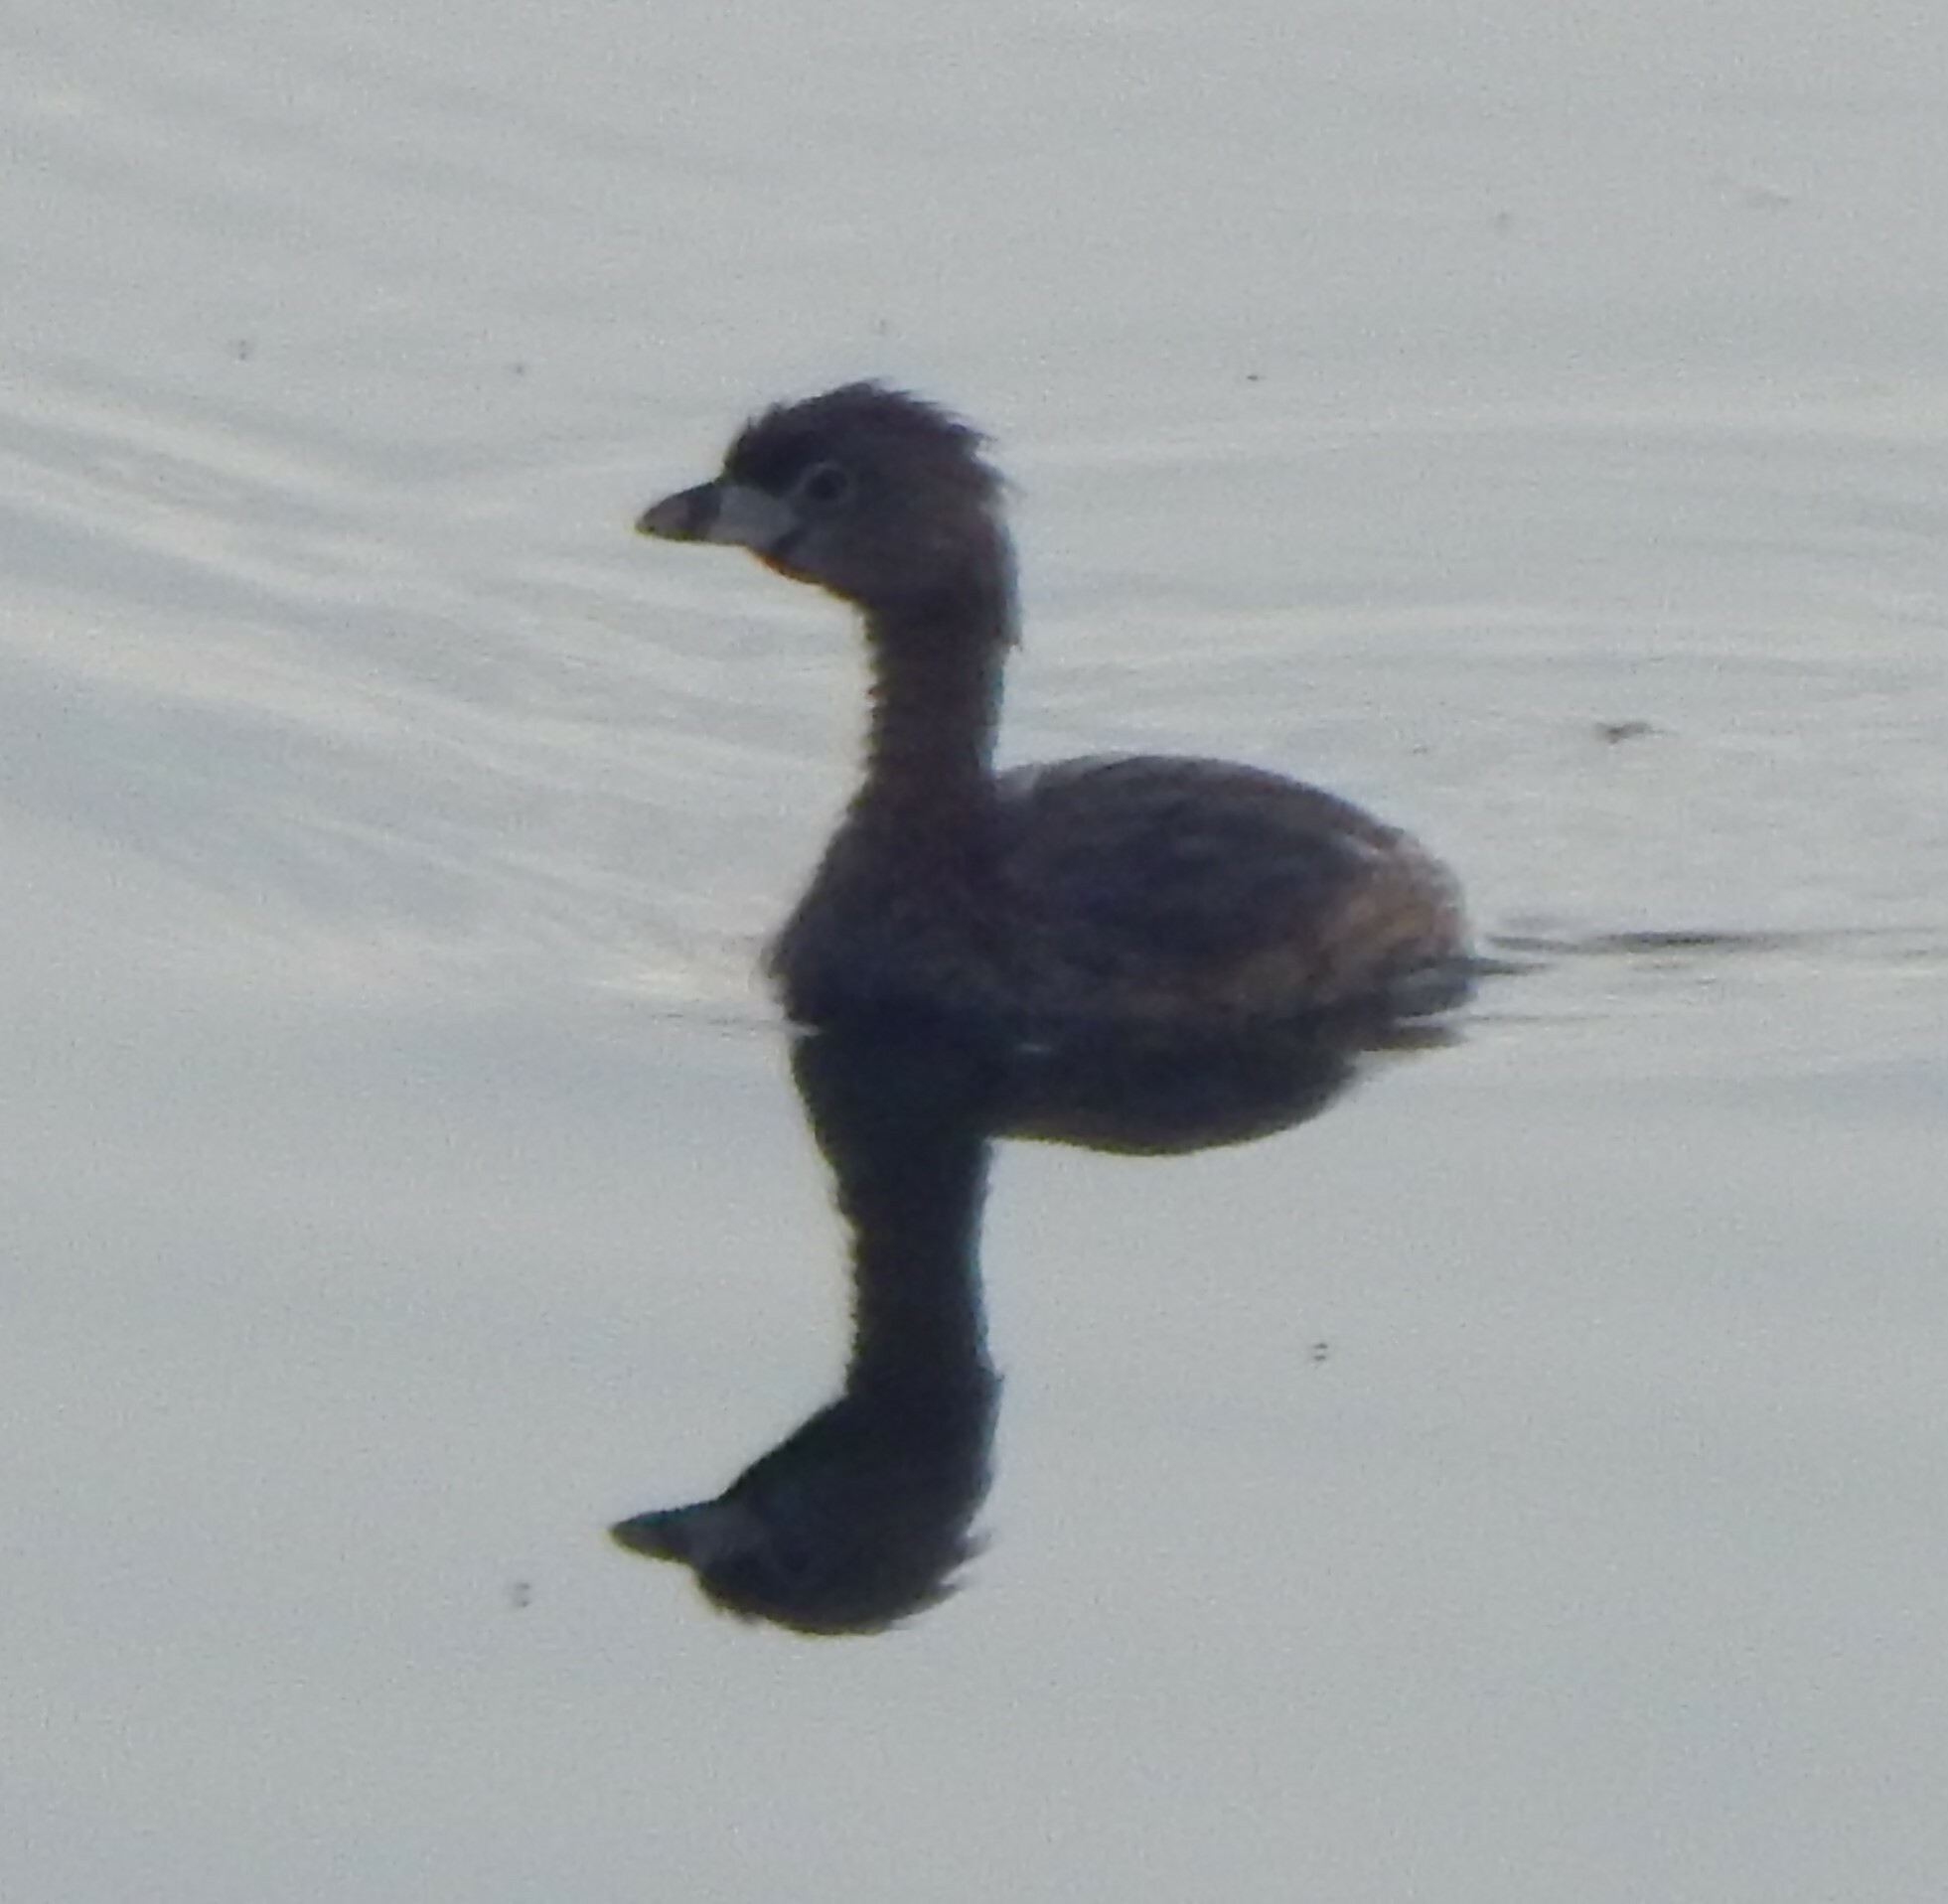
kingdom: Animalia
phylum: Chordata
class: Aves
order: Podicipediformes
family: Podicipedidae
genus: Podilymbus
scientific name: Podilymbus podiceps
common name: Pied-billed grebe
